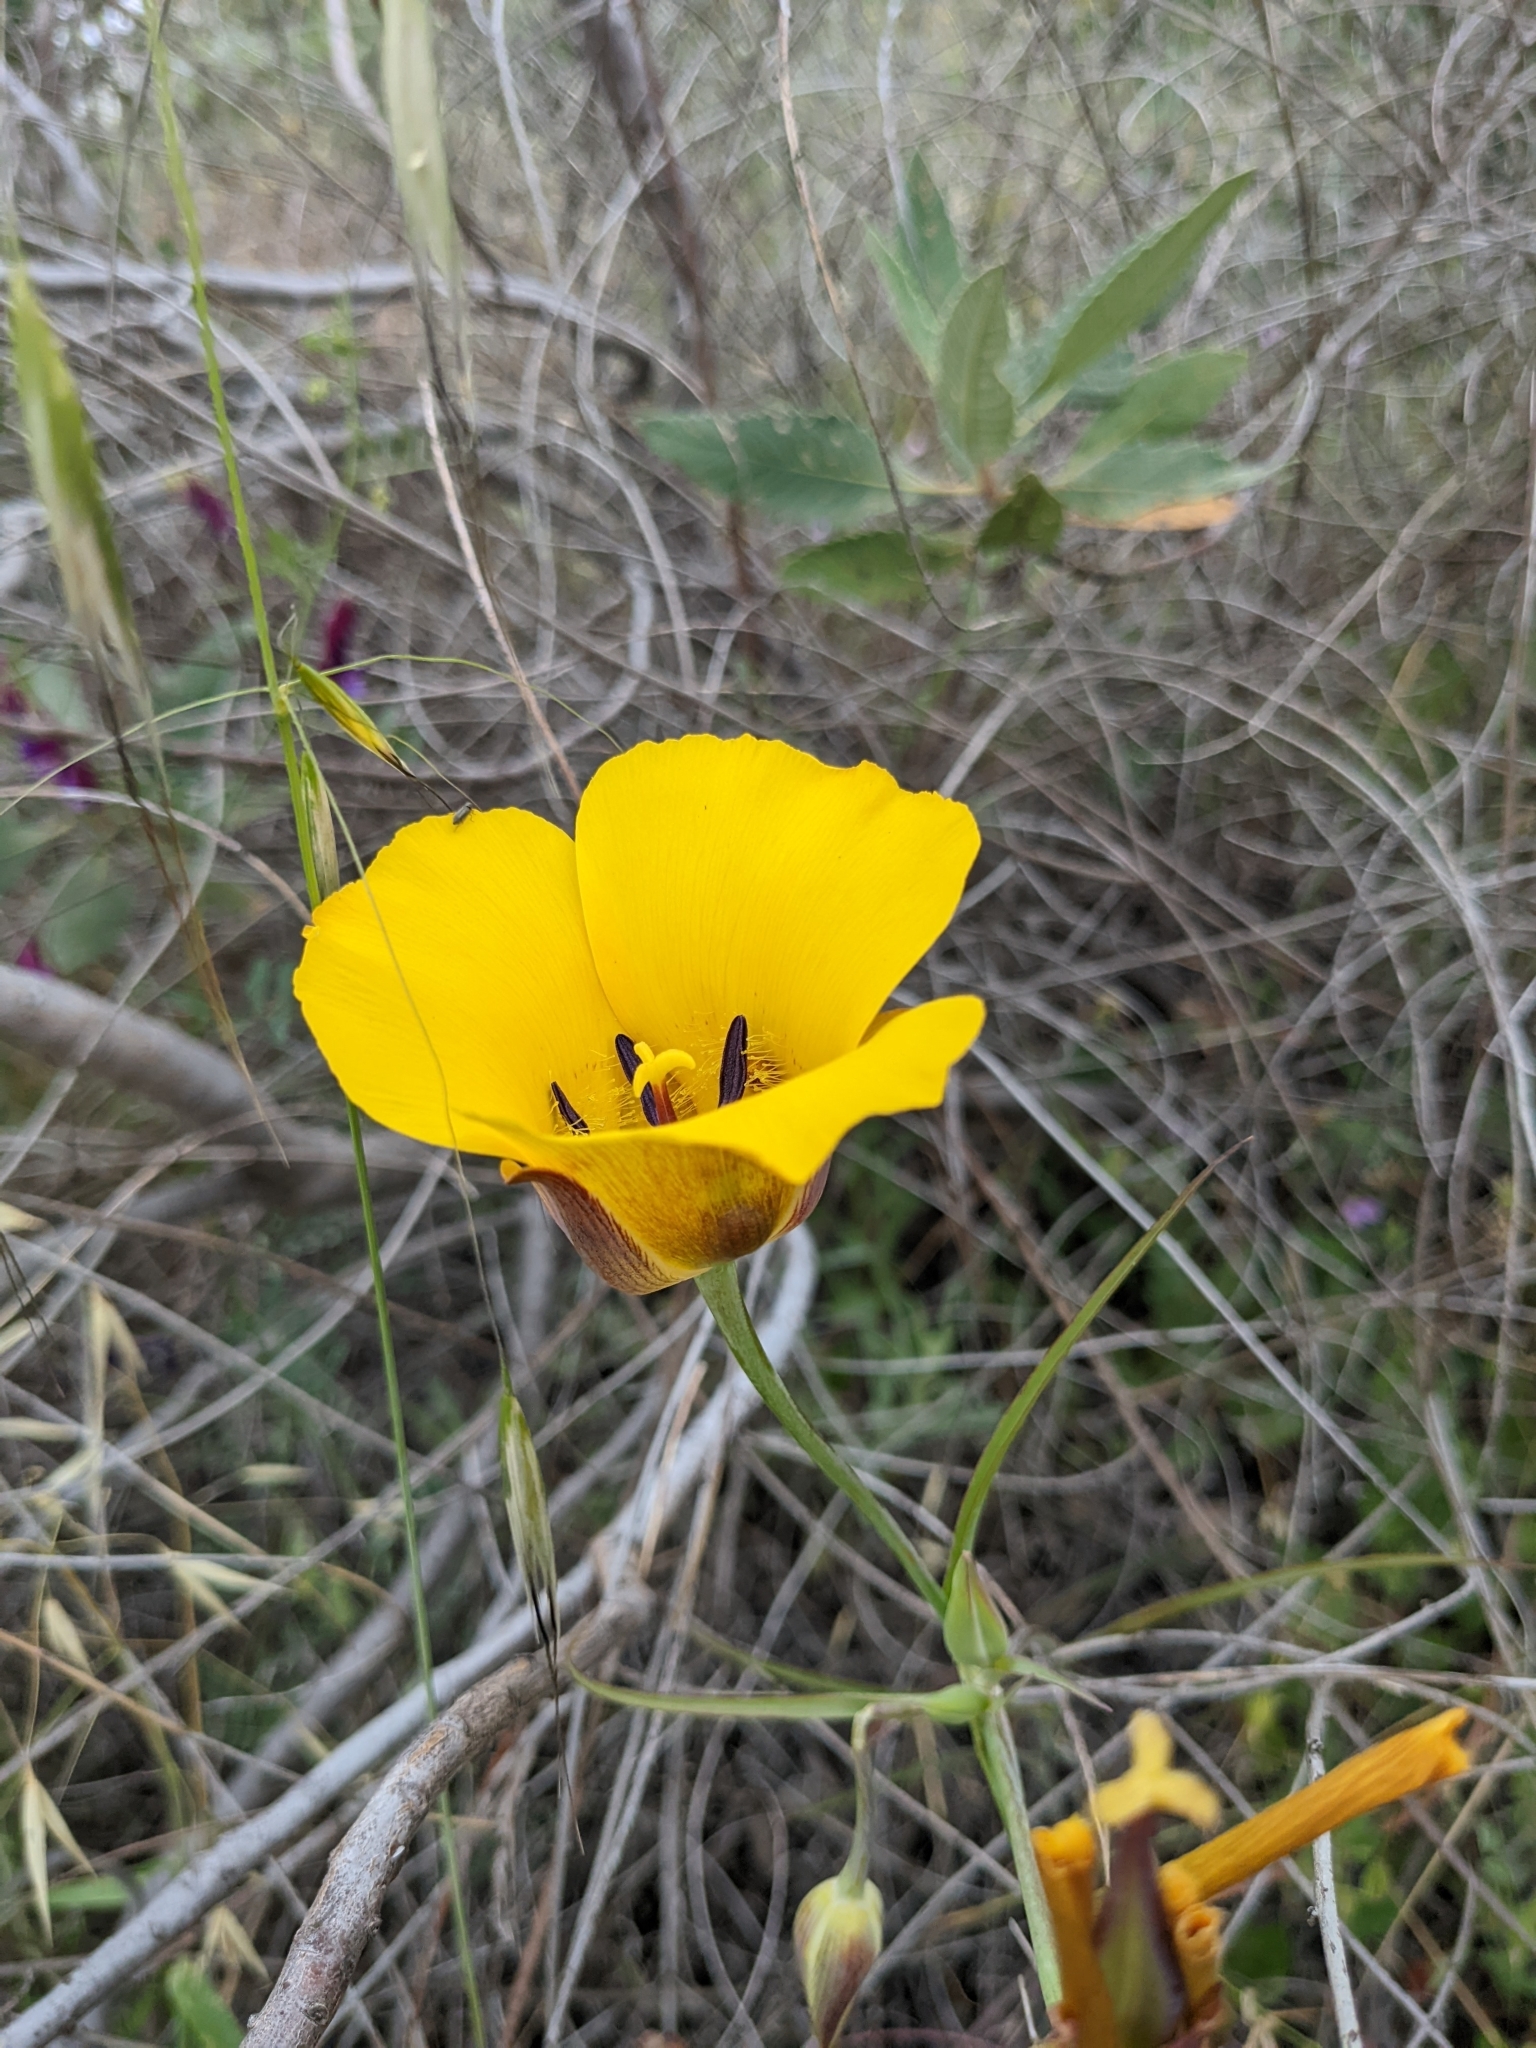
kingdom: Plantae
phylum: Tracheophyta
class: Liliopsida
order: Liliales
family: Liliaceae
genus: Calochortus
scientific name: Calochortus clavatus
